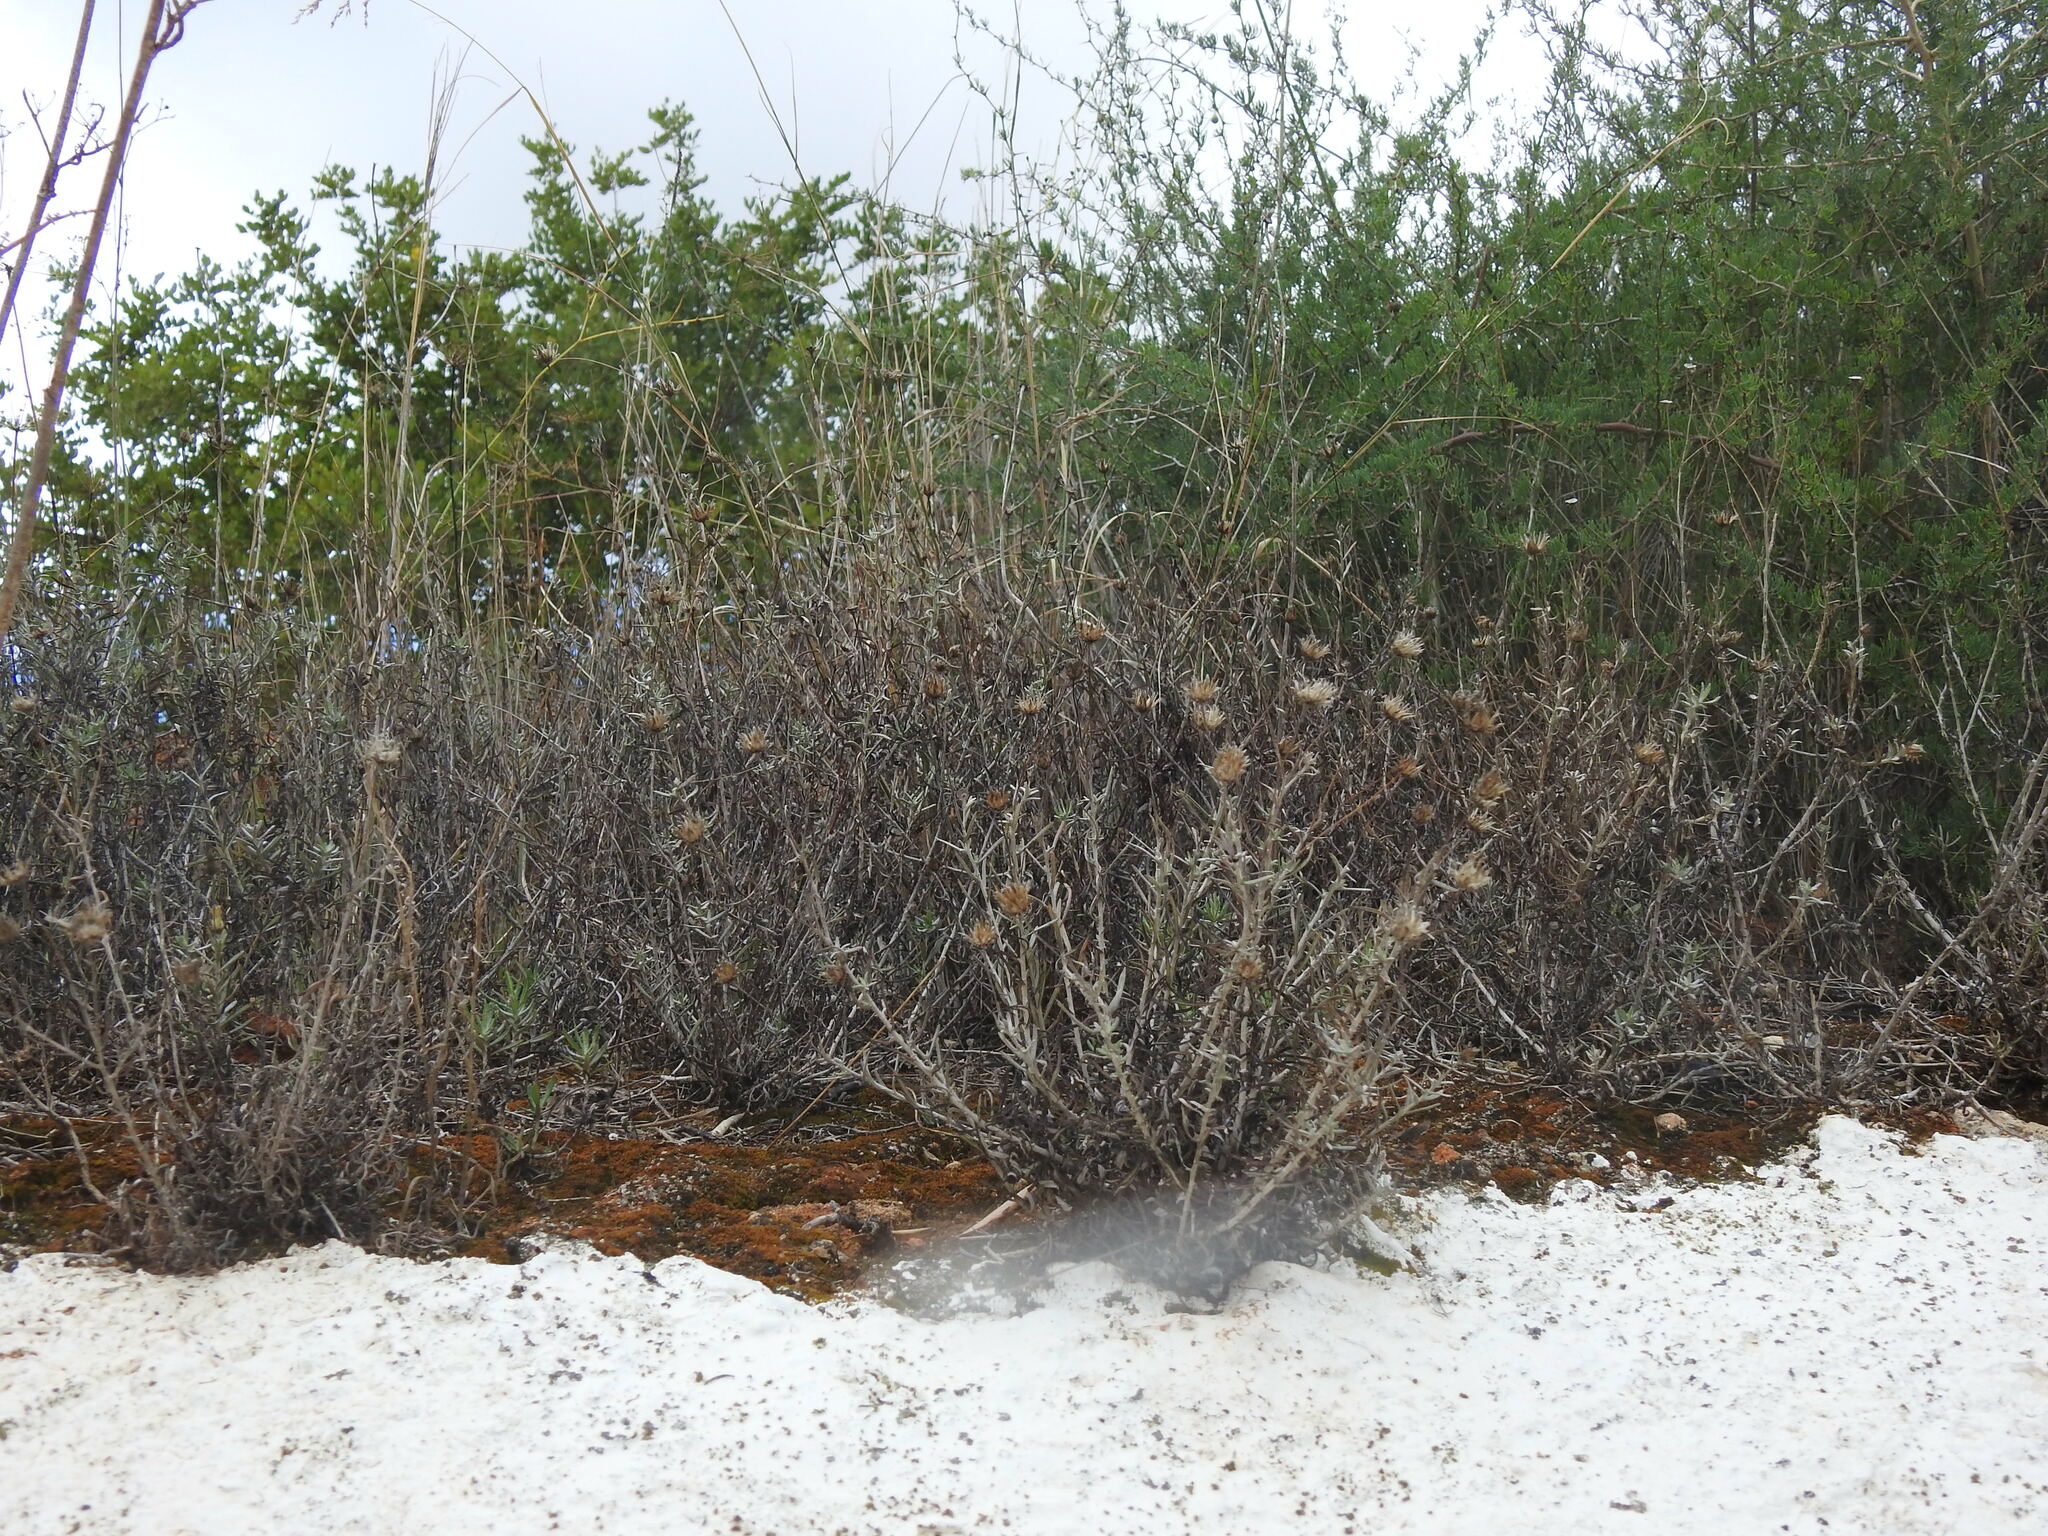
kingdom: Plantae
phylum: Tracheophyta
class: Magnoliopsida
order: Asterales
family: Asteraceae
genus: Phagnalon
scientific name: Phagnalon saxatile
